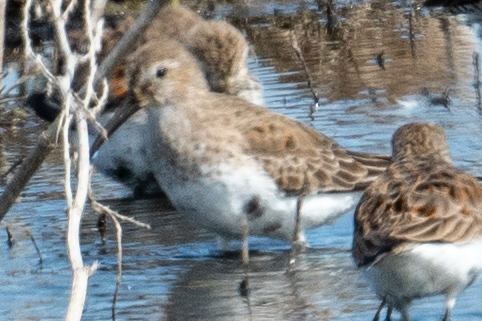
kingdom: Animalia
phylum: Chordata
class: Aves
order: Charadriiformes
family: Scolopacidae
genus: Calidris
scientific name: Calidris alpina
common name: Dunlin
